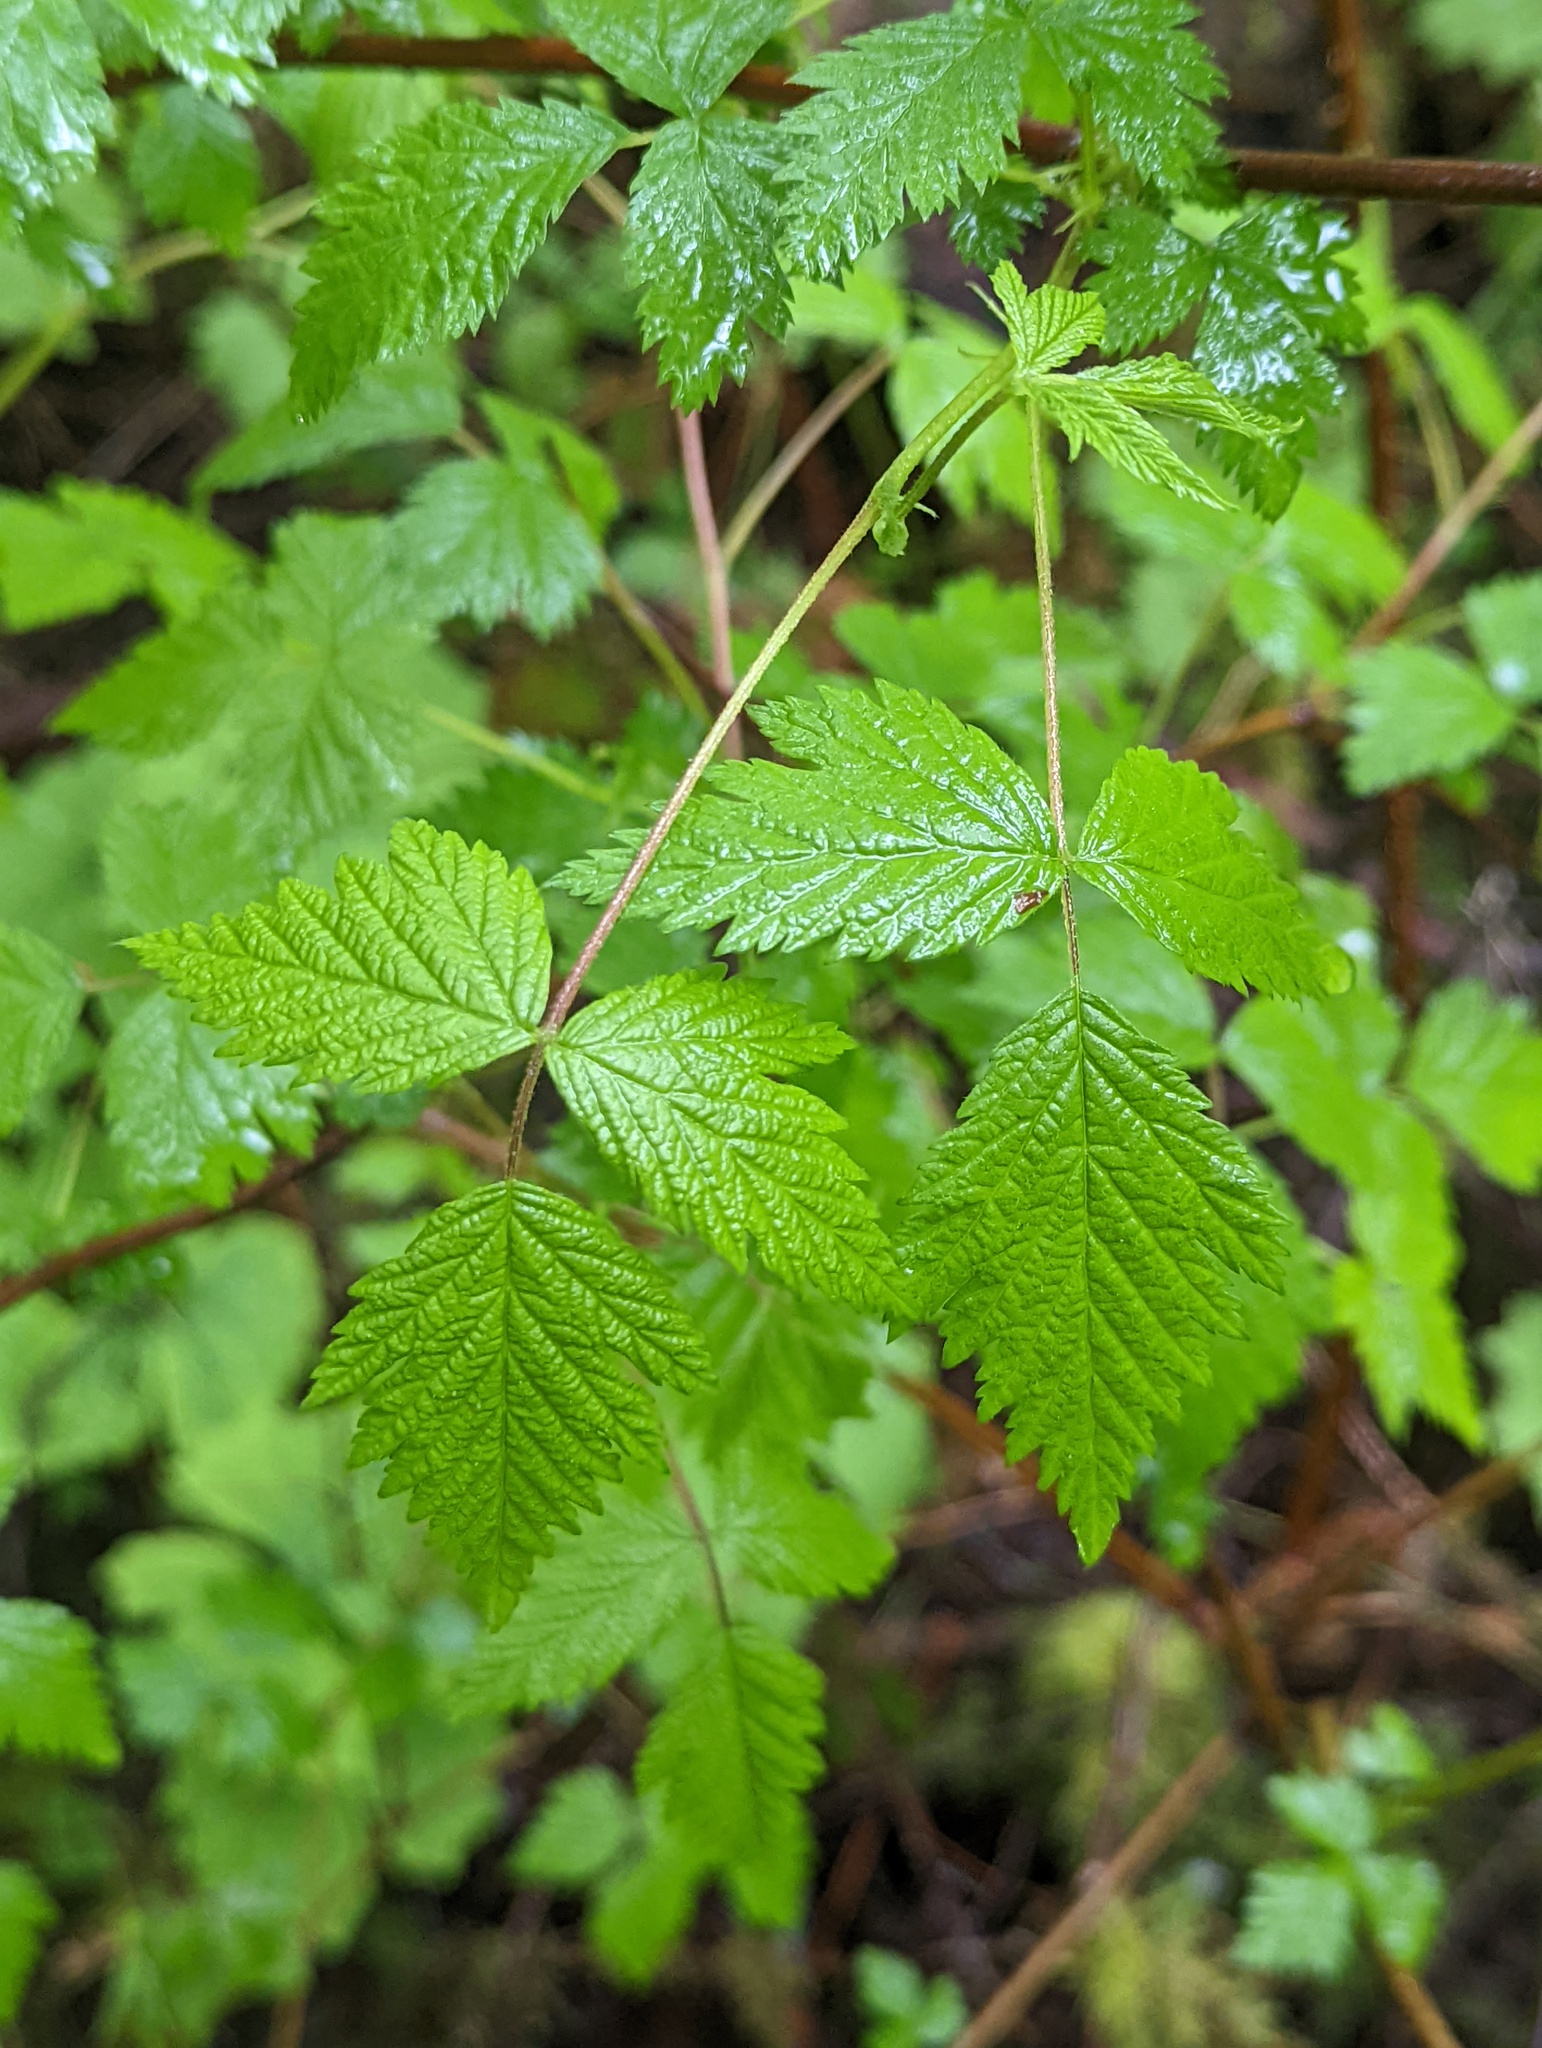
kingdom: Plantae
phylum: Tracheophyta
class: Magnoliopsida
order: Rosales
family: Rosaceae
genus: Rubus
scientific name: Rubus spectabilis
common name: Salmonberry
